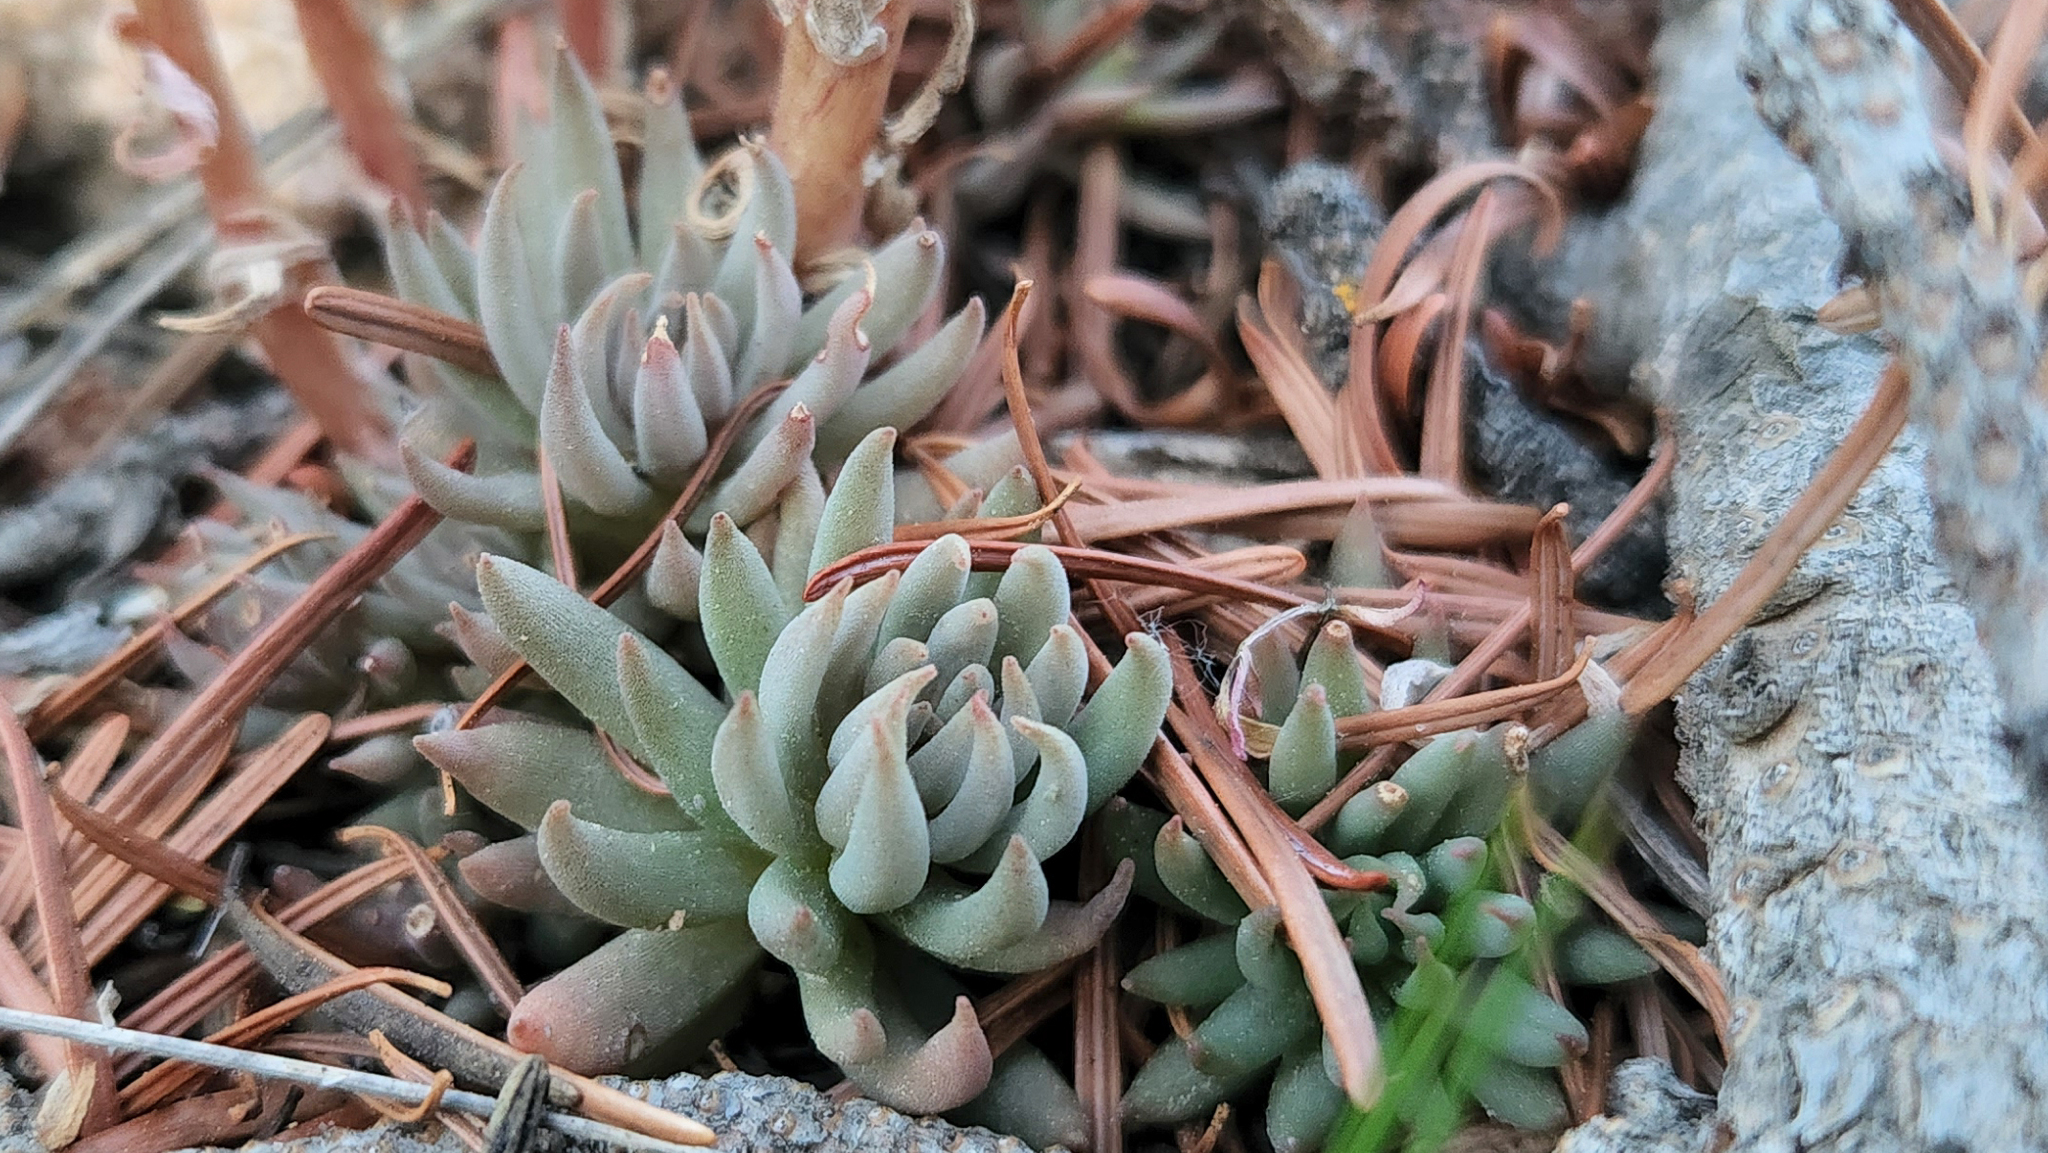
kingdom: Plantae
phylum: Tracheophyta
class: Magnoliopsida
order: Saxifragales
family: Crassulaceae
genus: Sedum
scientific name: Sedum lanceolatum
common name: Common stonecrop
